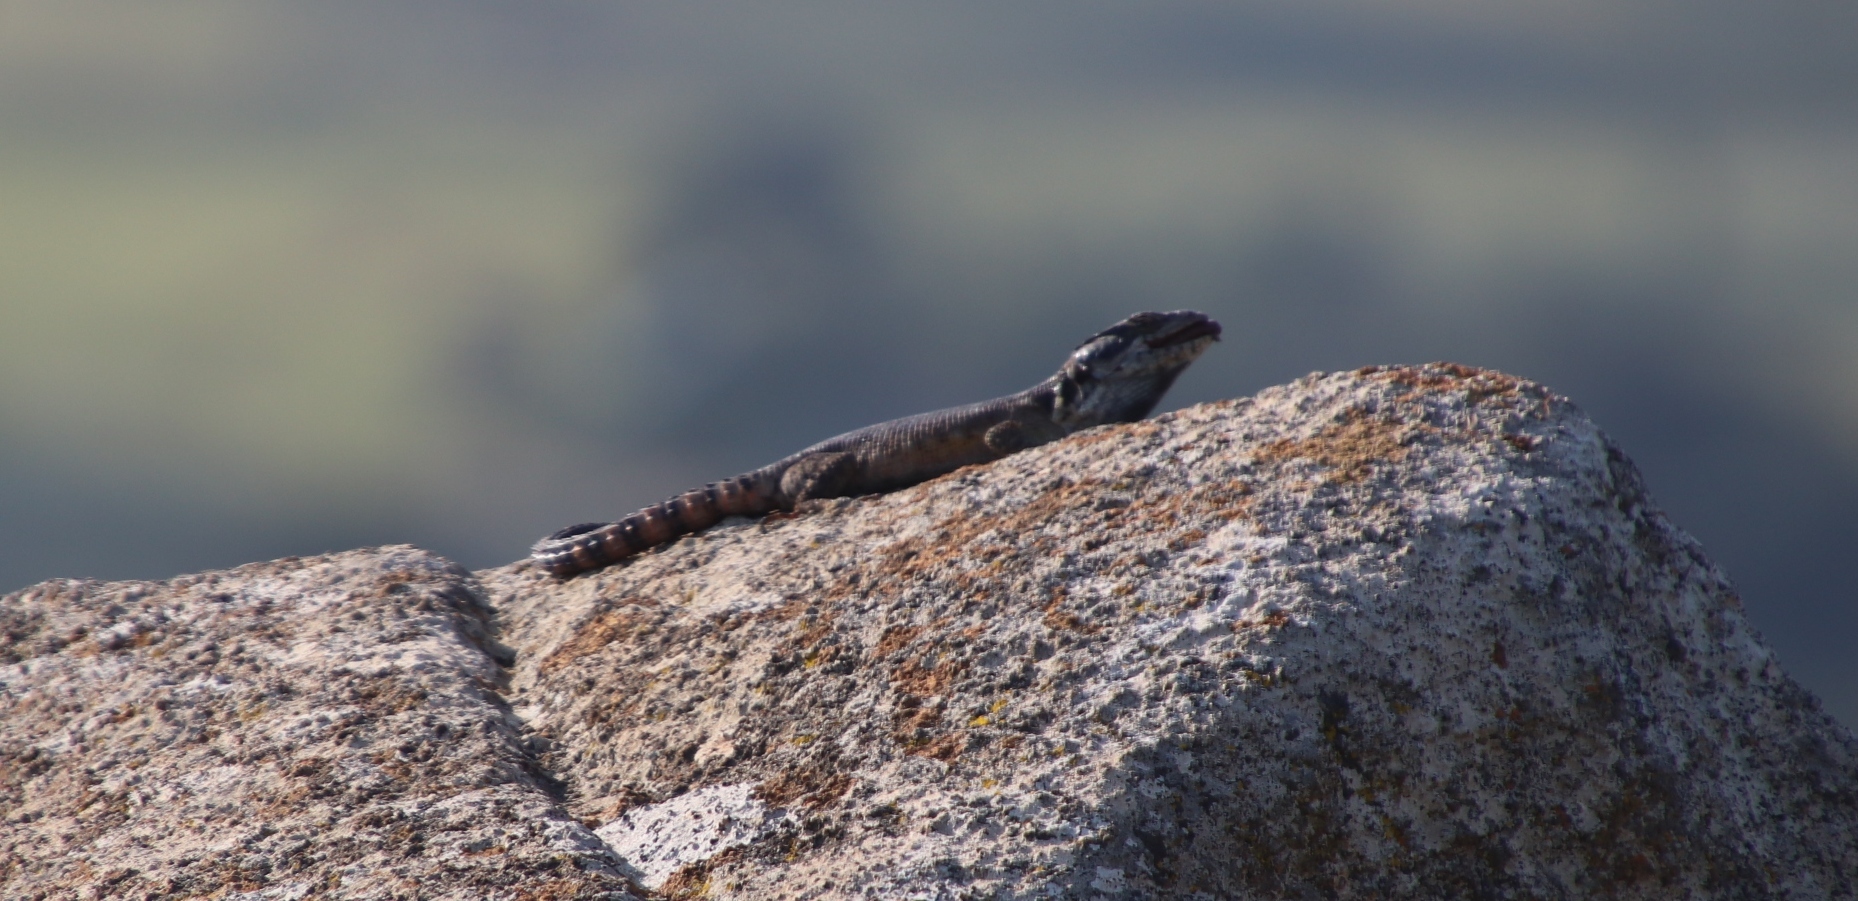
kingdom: Animalia
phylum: Chordata
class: Squamata
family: Cordylidae
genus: Pseudocordylus
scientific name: Pseudocordylus melanotus
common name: Highveld crag lizard
